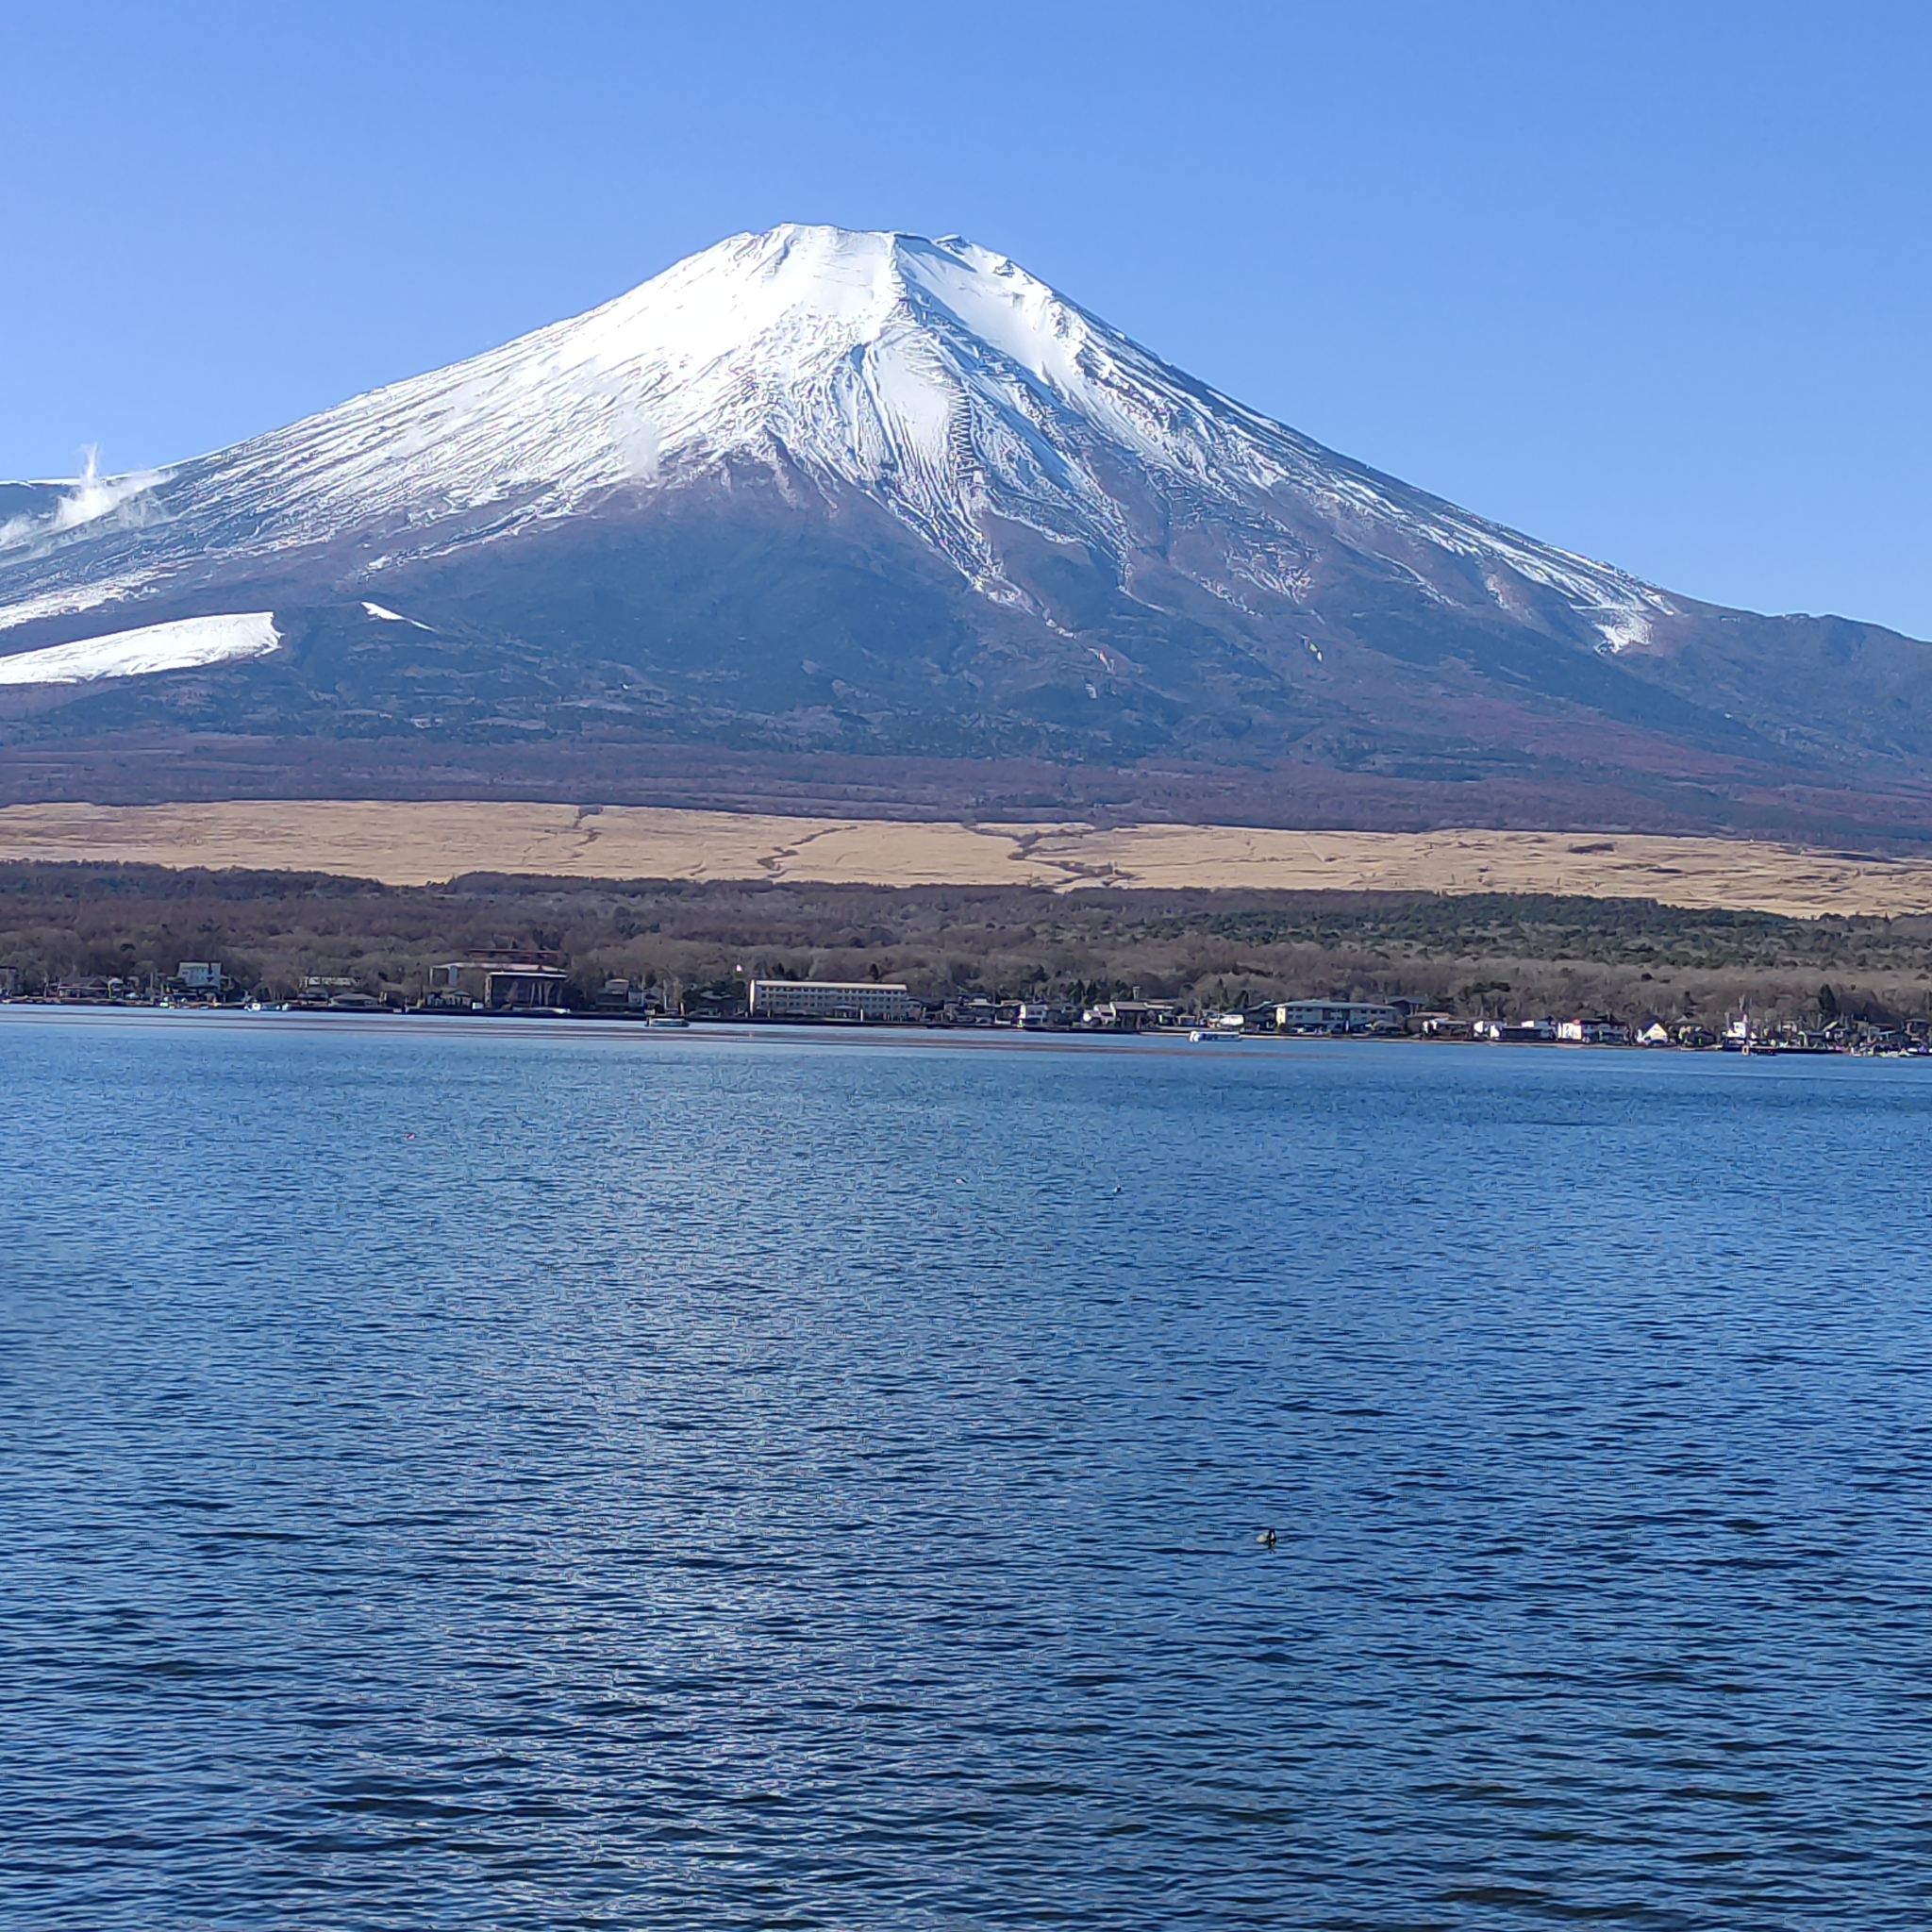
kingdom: Animalia
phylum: Chordata
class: Aves
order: Gruiformes
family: Rallidae
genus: Fulica
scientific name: Fulica atra
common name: Eurasian coot
